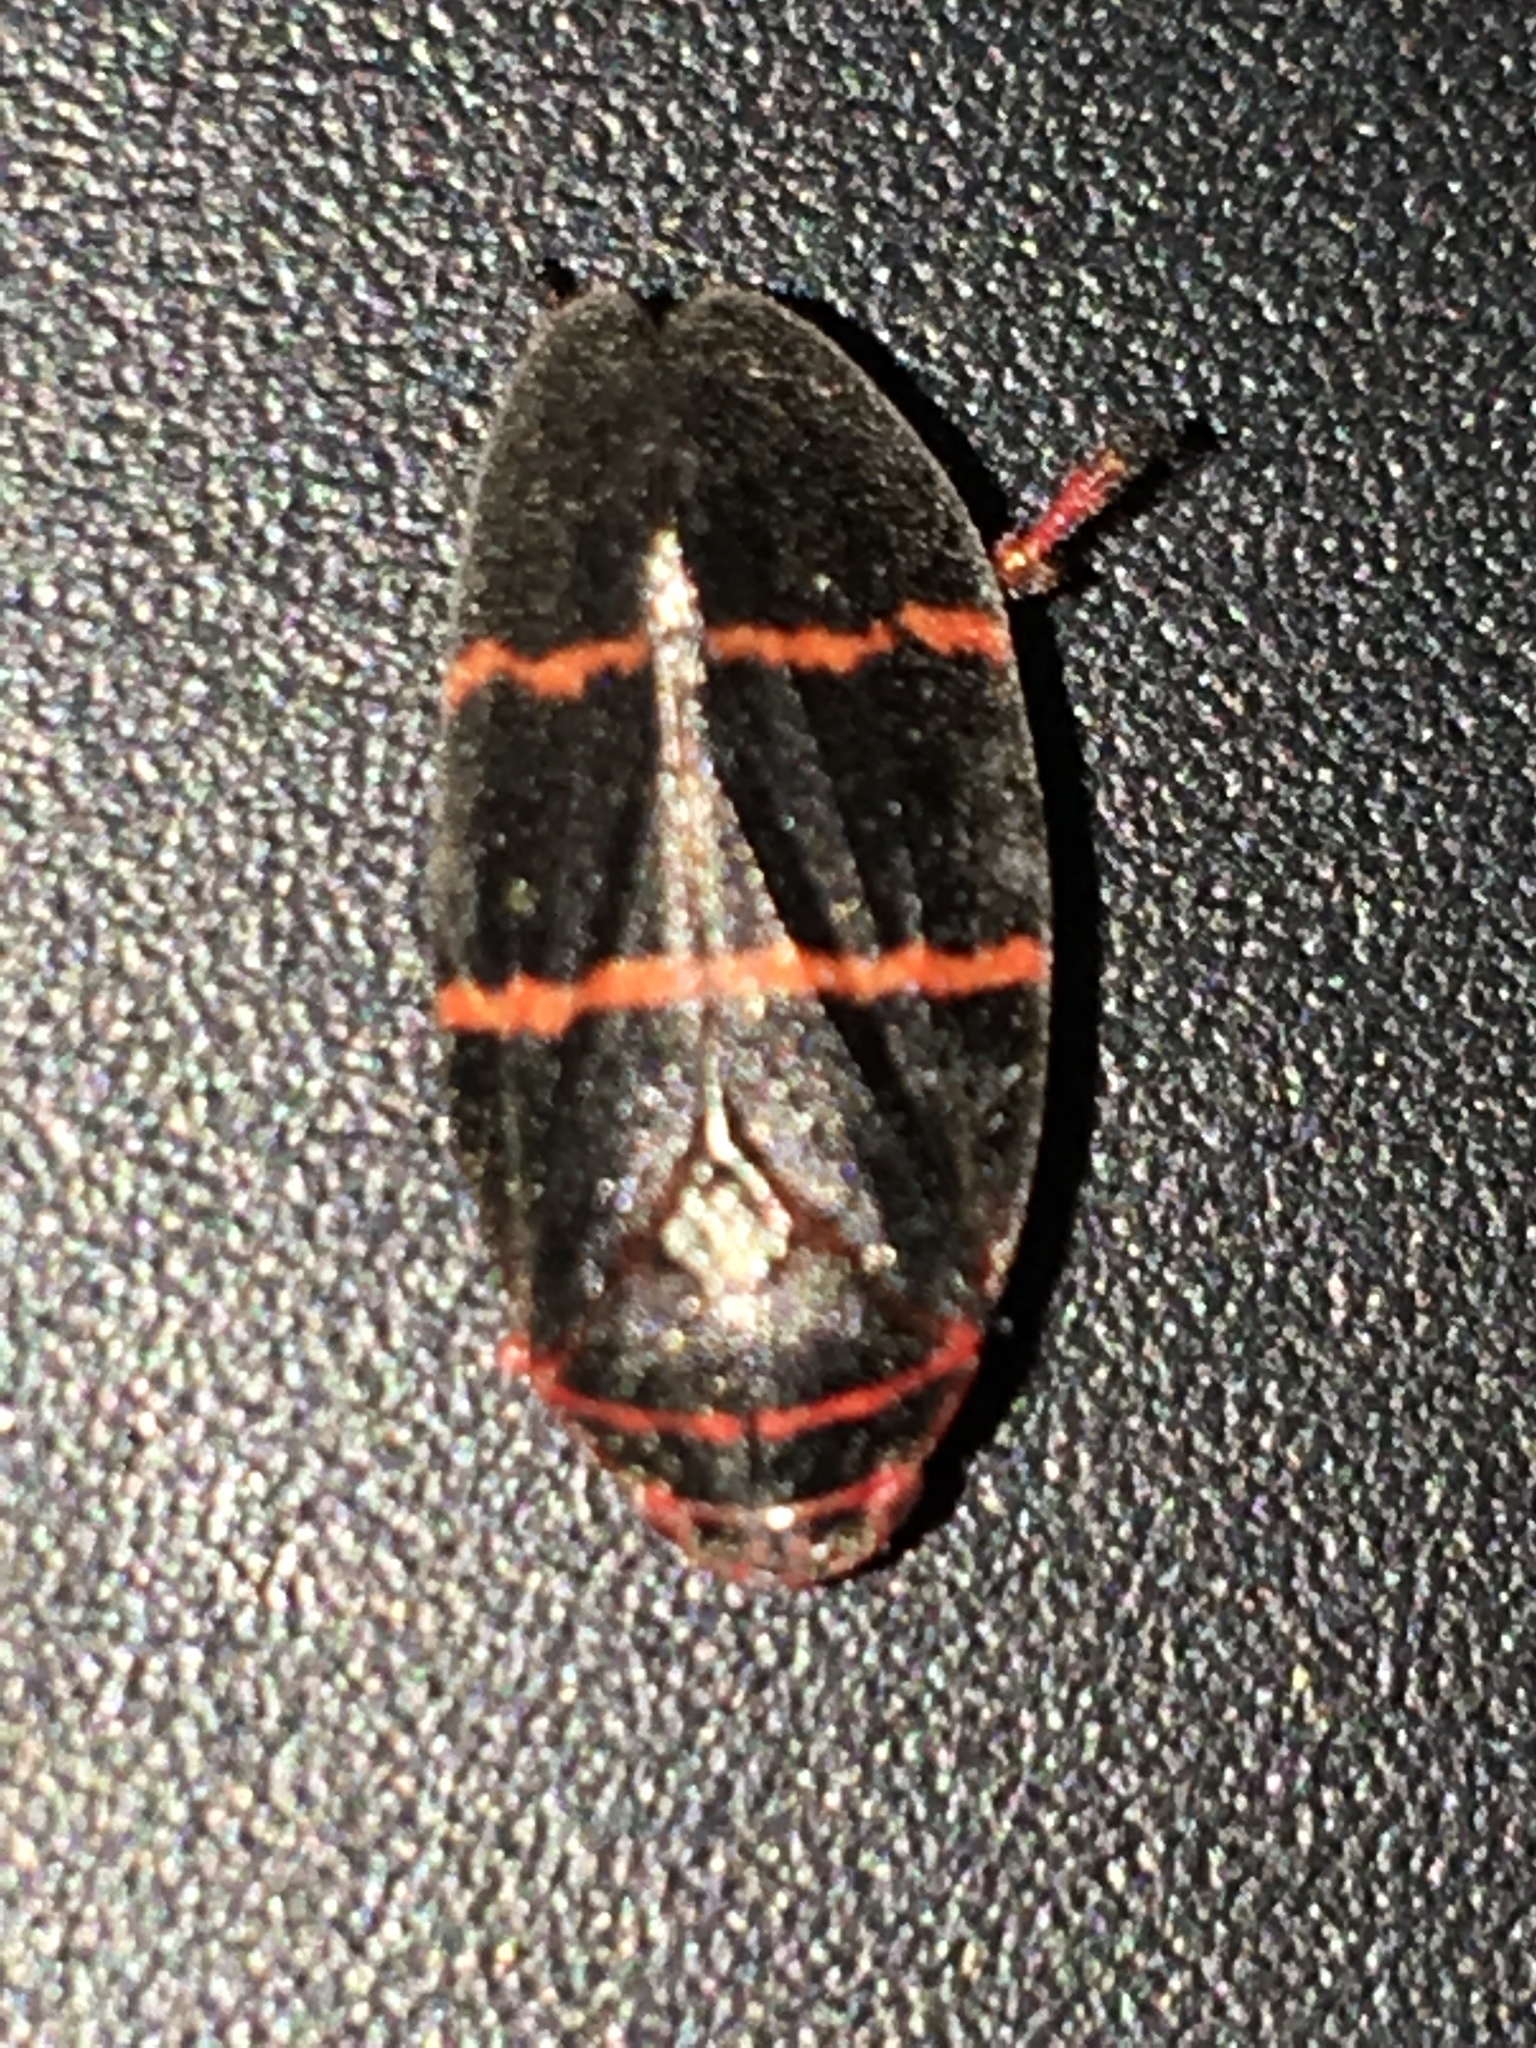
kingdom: Animalia
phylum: Arthropoda
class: Insecta
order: Hemiptera
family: Cercopidae
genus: Prosapia
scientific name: Prosapia bicincta
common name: Twolined spittlebug
